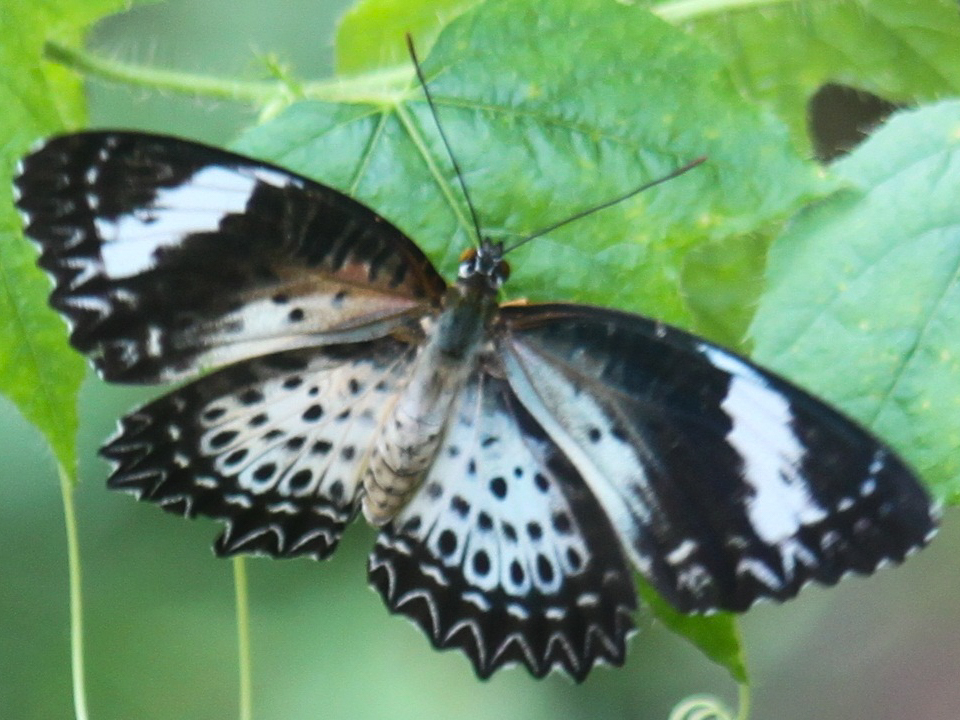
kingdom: Animalia
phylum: Arthropoda
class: Insecta
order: Lepidoptera
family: Nymphalidae
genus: Cethosia
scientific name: Cethosia cyane
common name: Leopard lacewing butterfly
